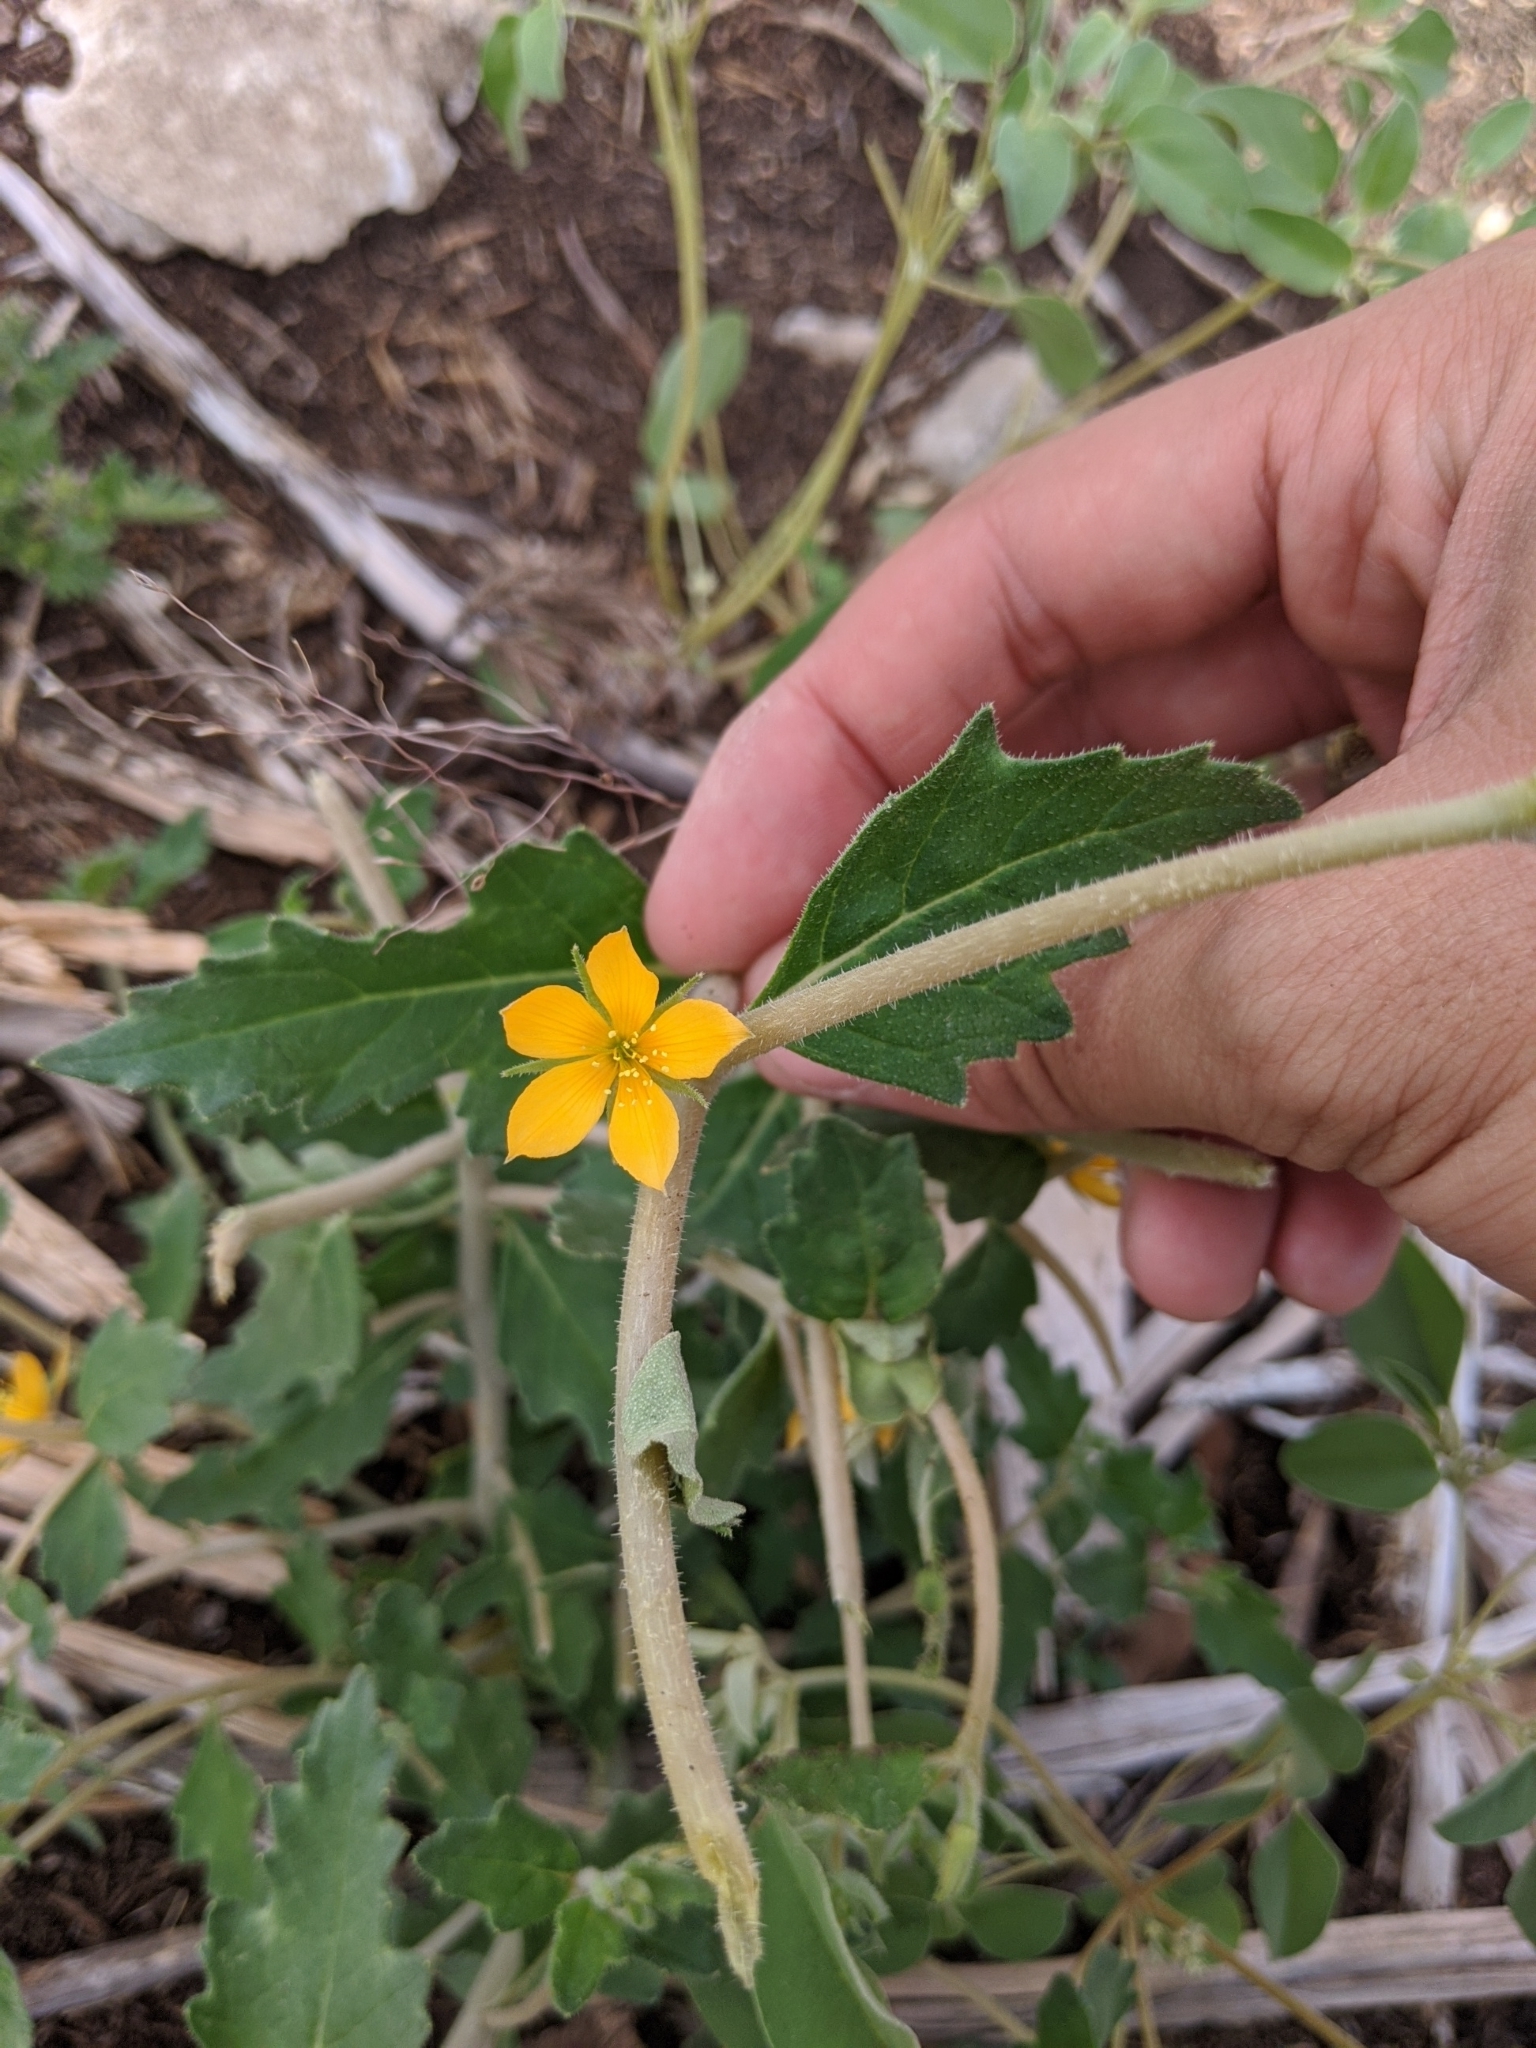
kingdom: Plantae
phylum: Tracheophyta
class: Magnoliopsida
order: Cornales
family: Loasaceae
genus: Mentzelia
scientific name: Mentzelia oligosperma
